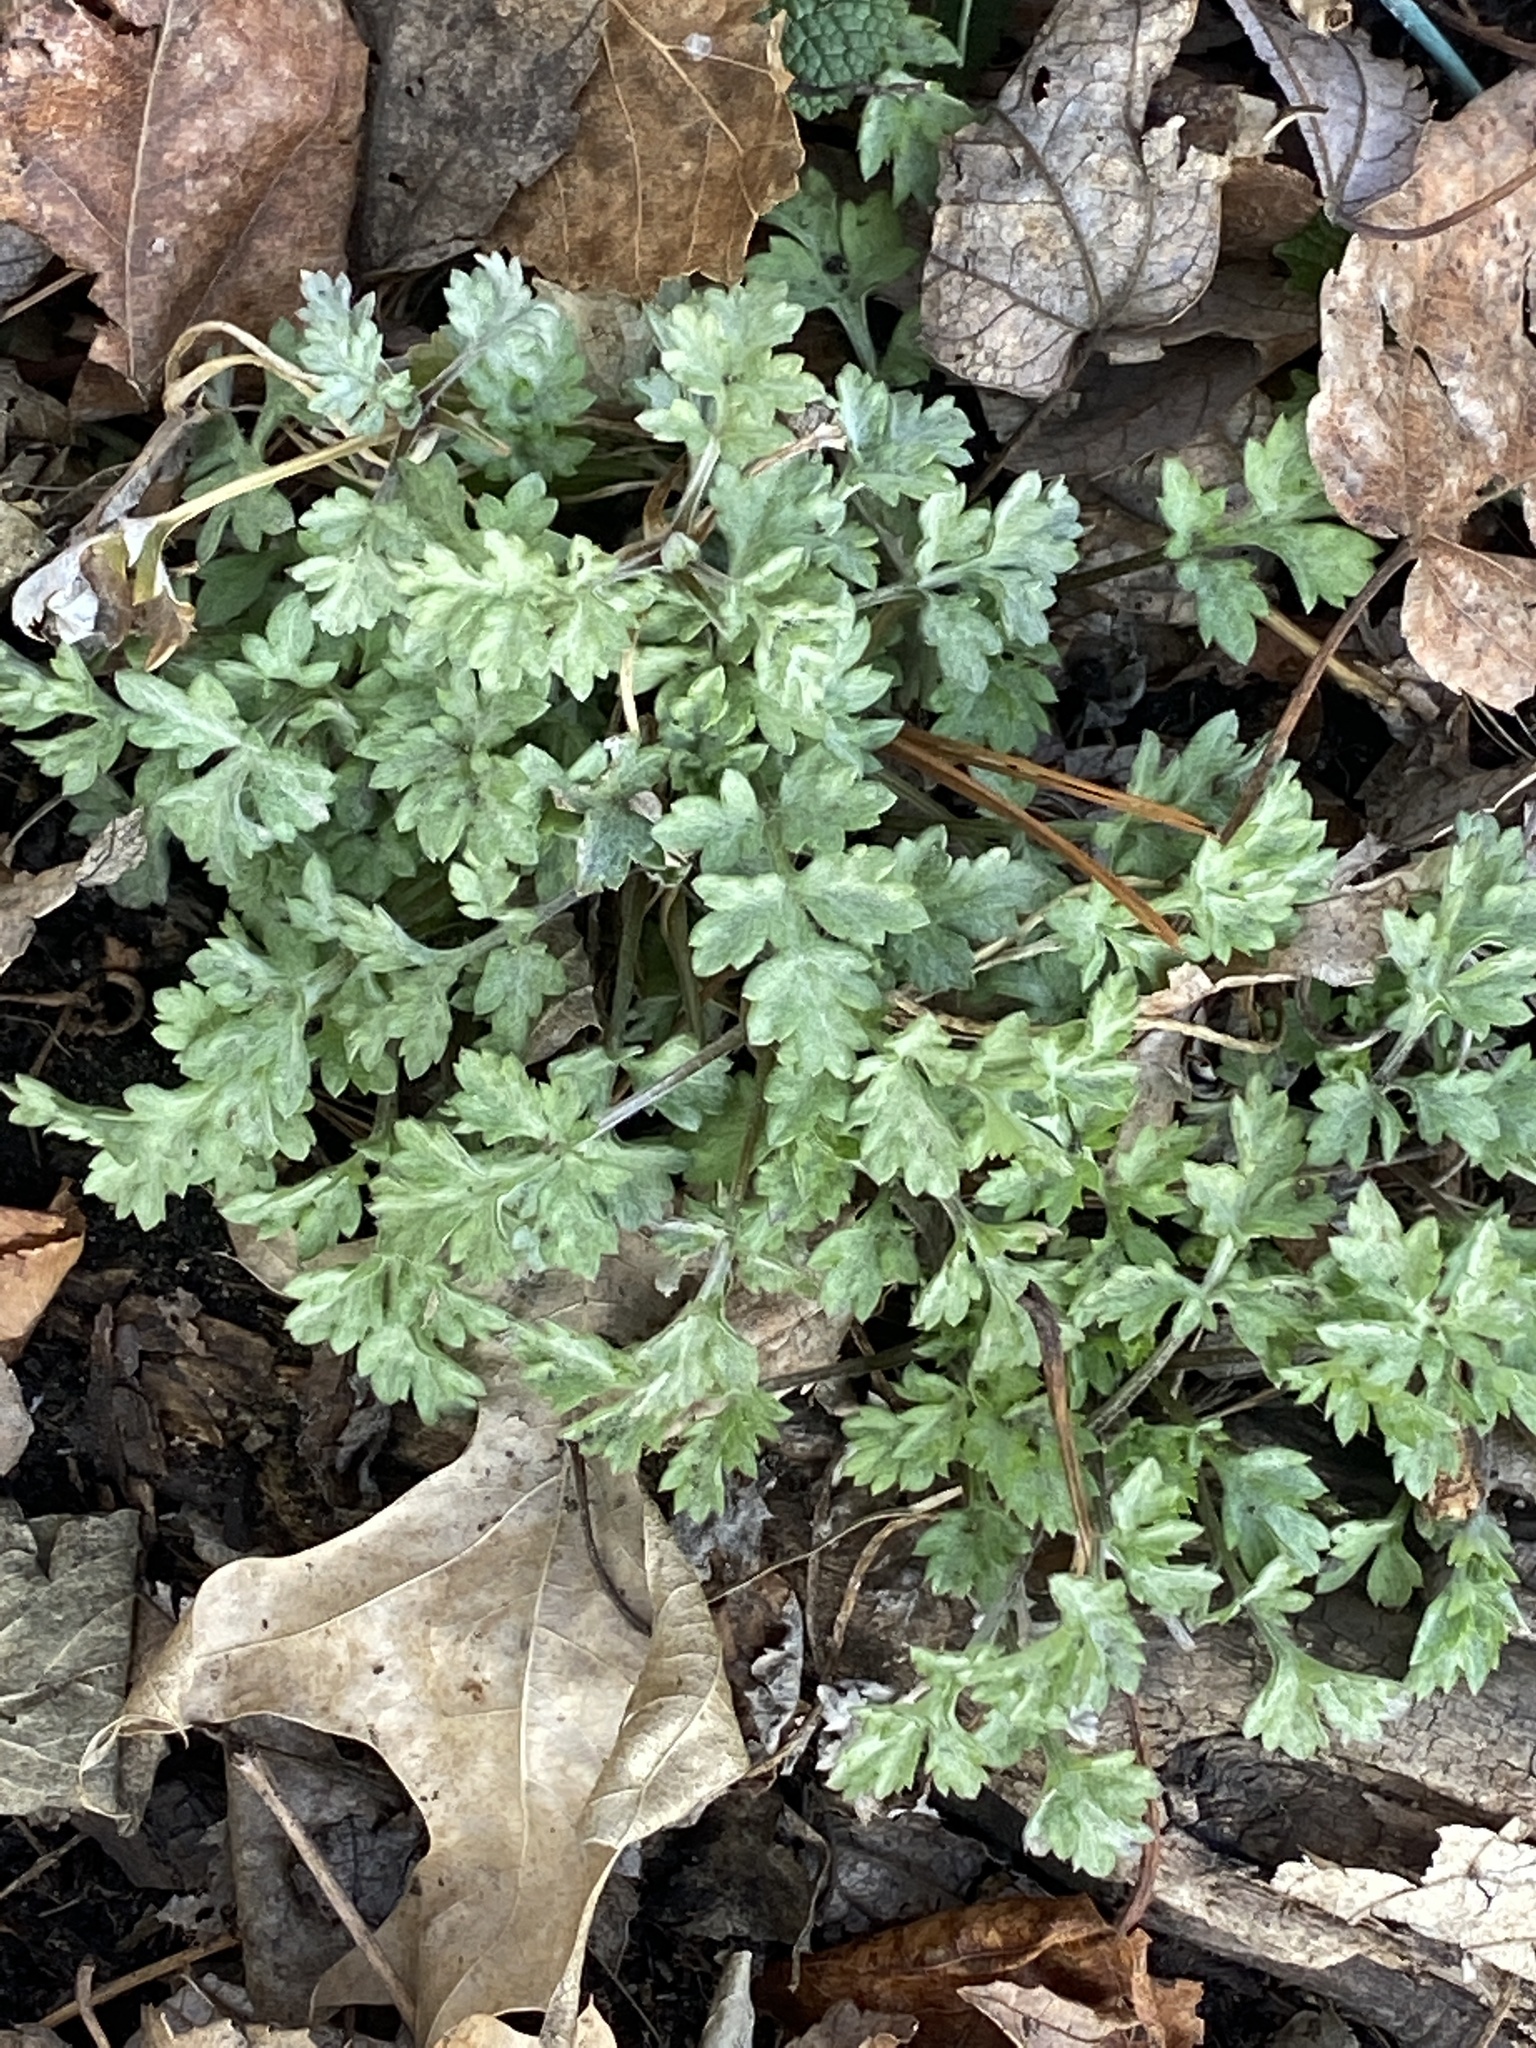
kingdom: Plantae
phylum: Tracheophyta
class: Magnoliopsida
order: Asterales
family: Asteraceae
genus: Artemisia
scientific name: Artemisia vulgaris
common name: Mugwort
